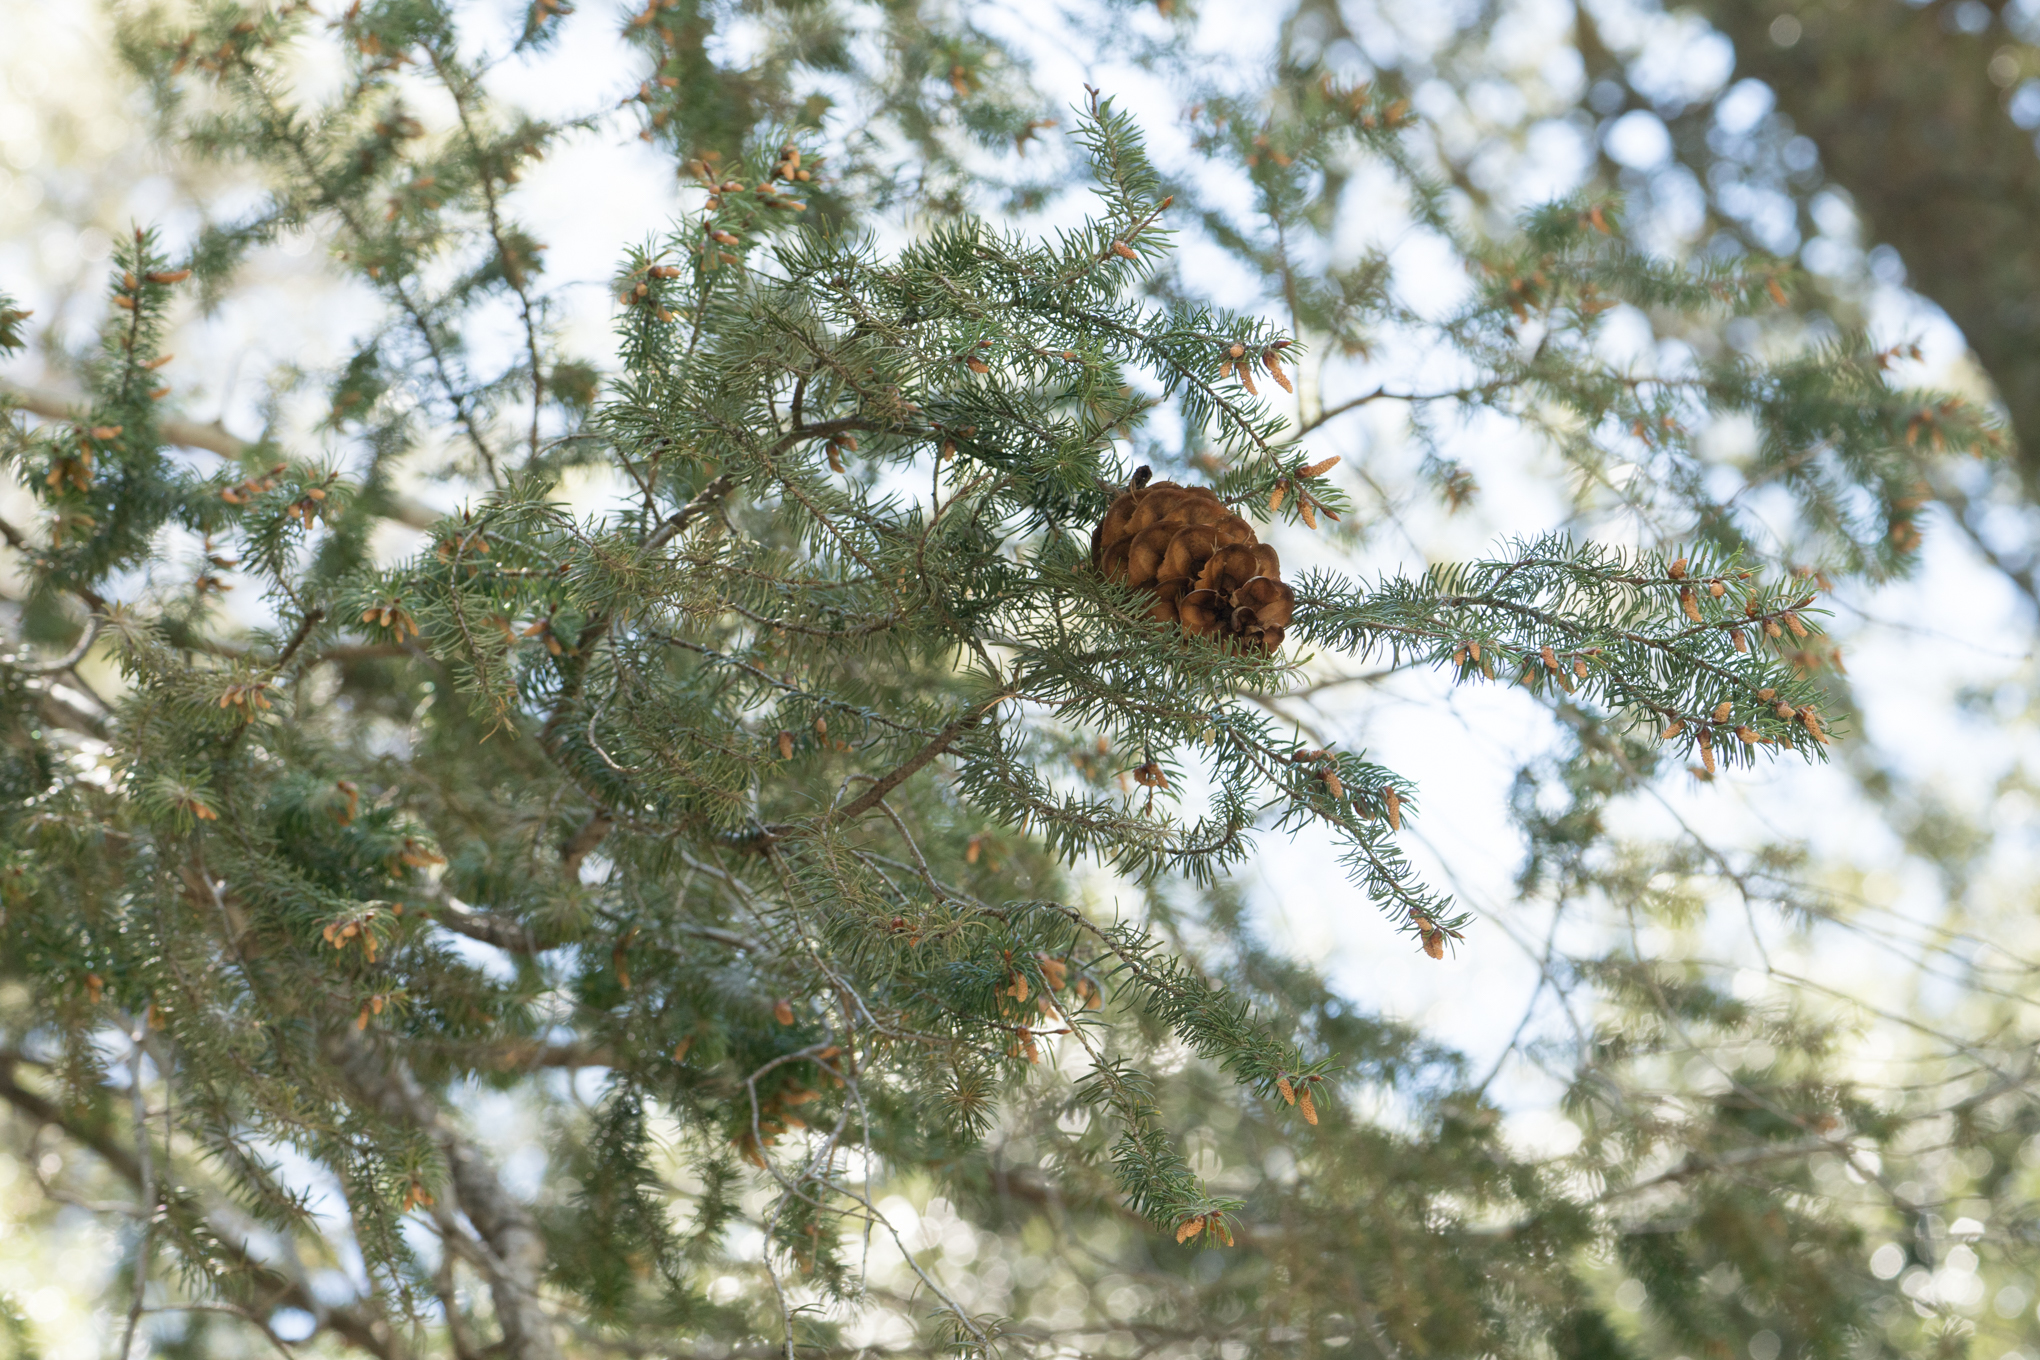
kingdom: Plantae
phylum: Tracheophyta
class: Pinopsida
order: Pinales
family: Pinaceae
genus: Pseudotsuga
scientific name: Pseudotsuga macrocarpa
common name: Big-cone douglas-fir
